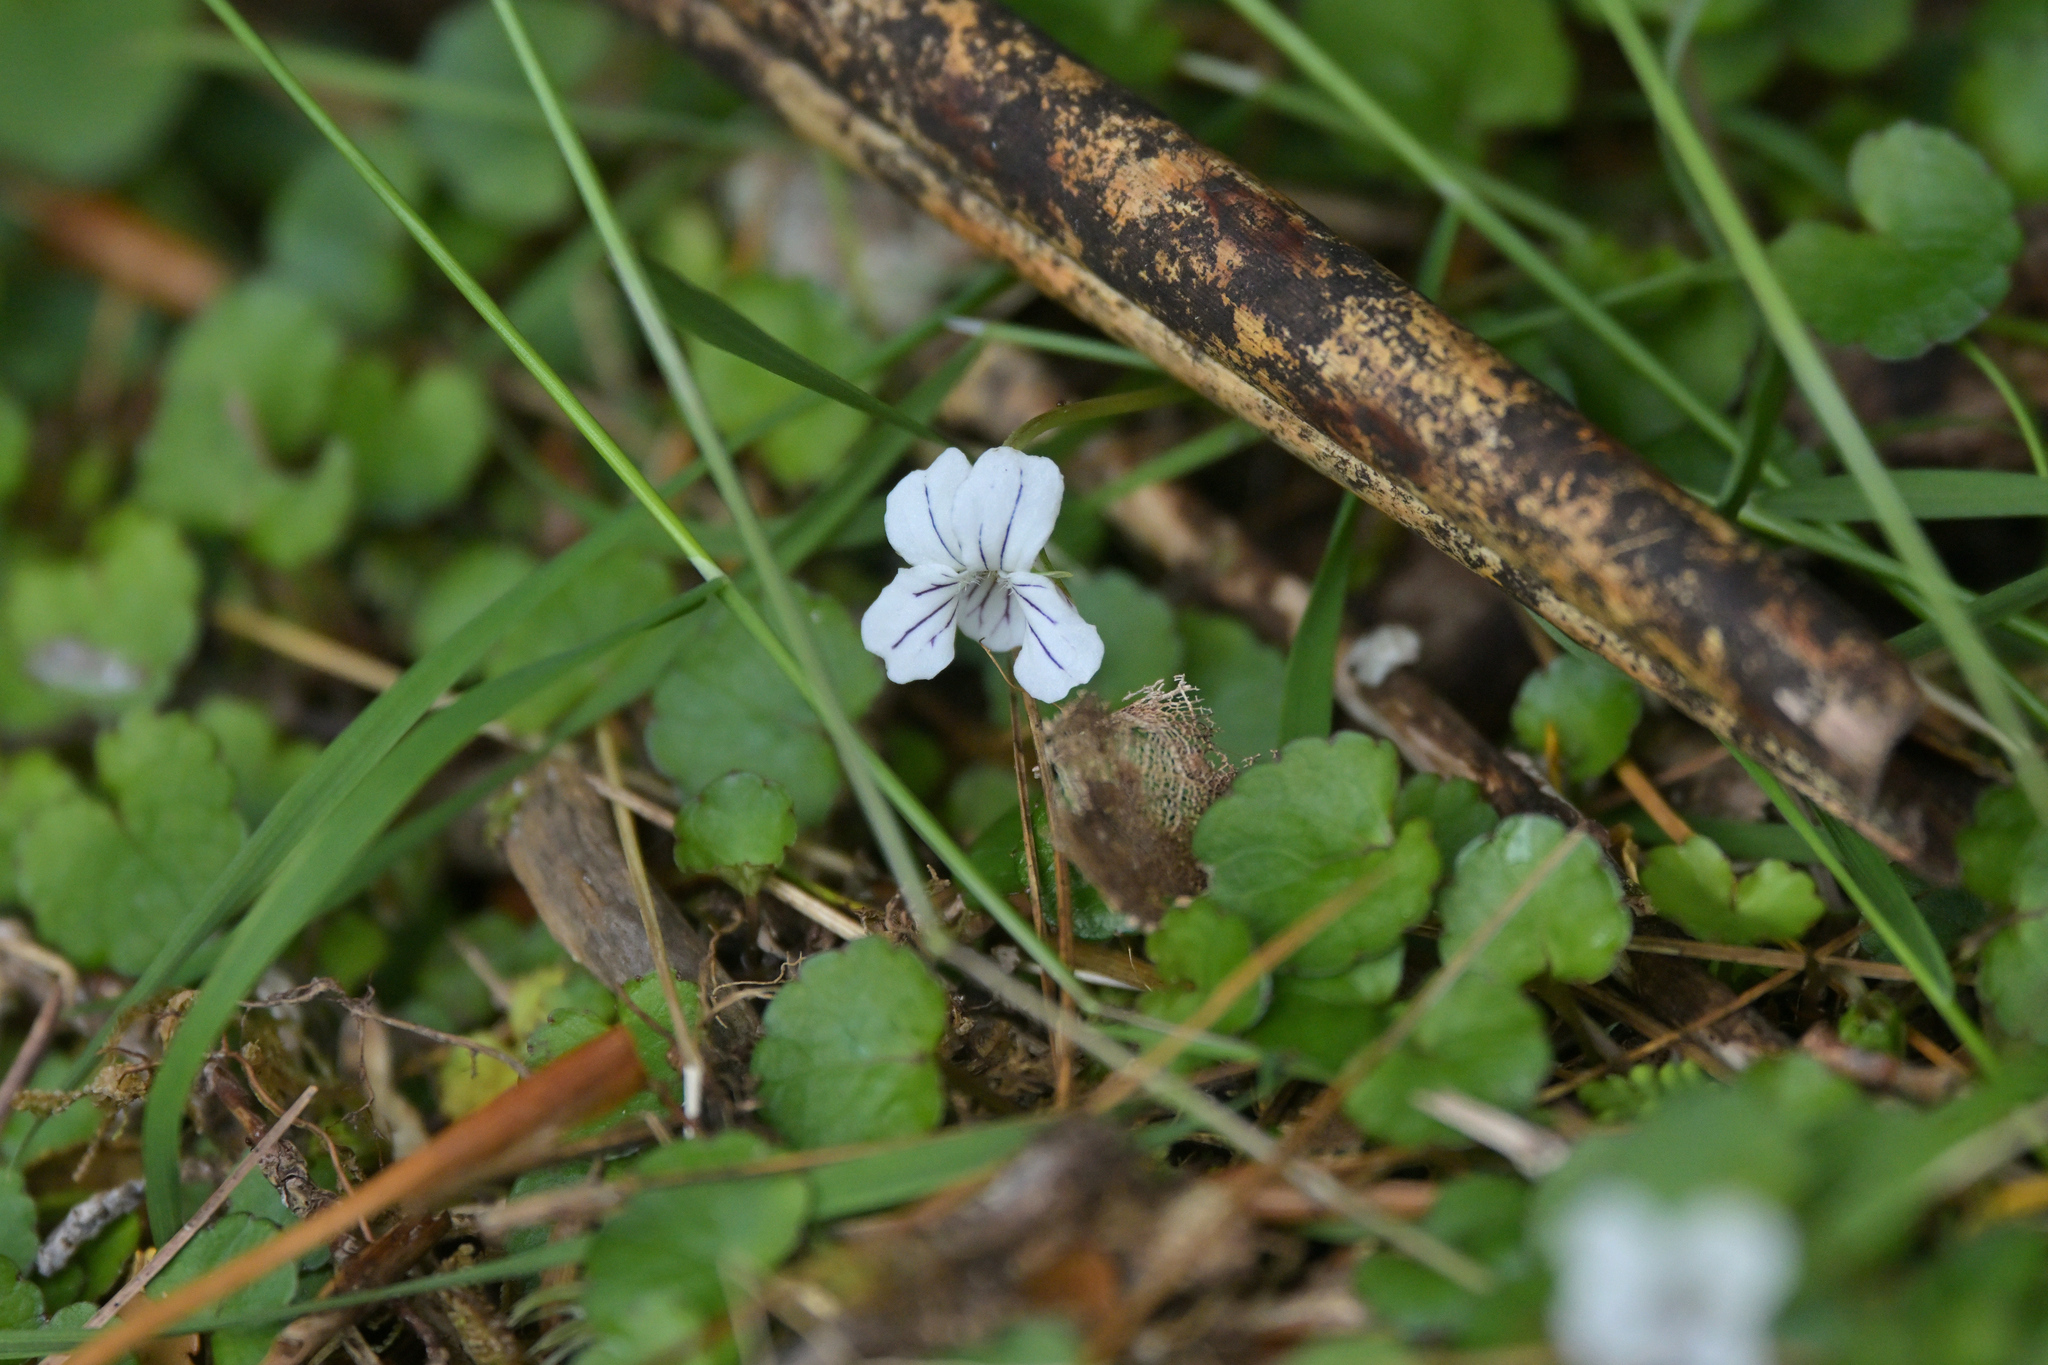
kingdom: Plantae
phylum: Tracheophyta
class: Magnoliopsida
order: Malpighiales
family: Violaceae
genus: Viola
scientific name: Viola filicaulis
